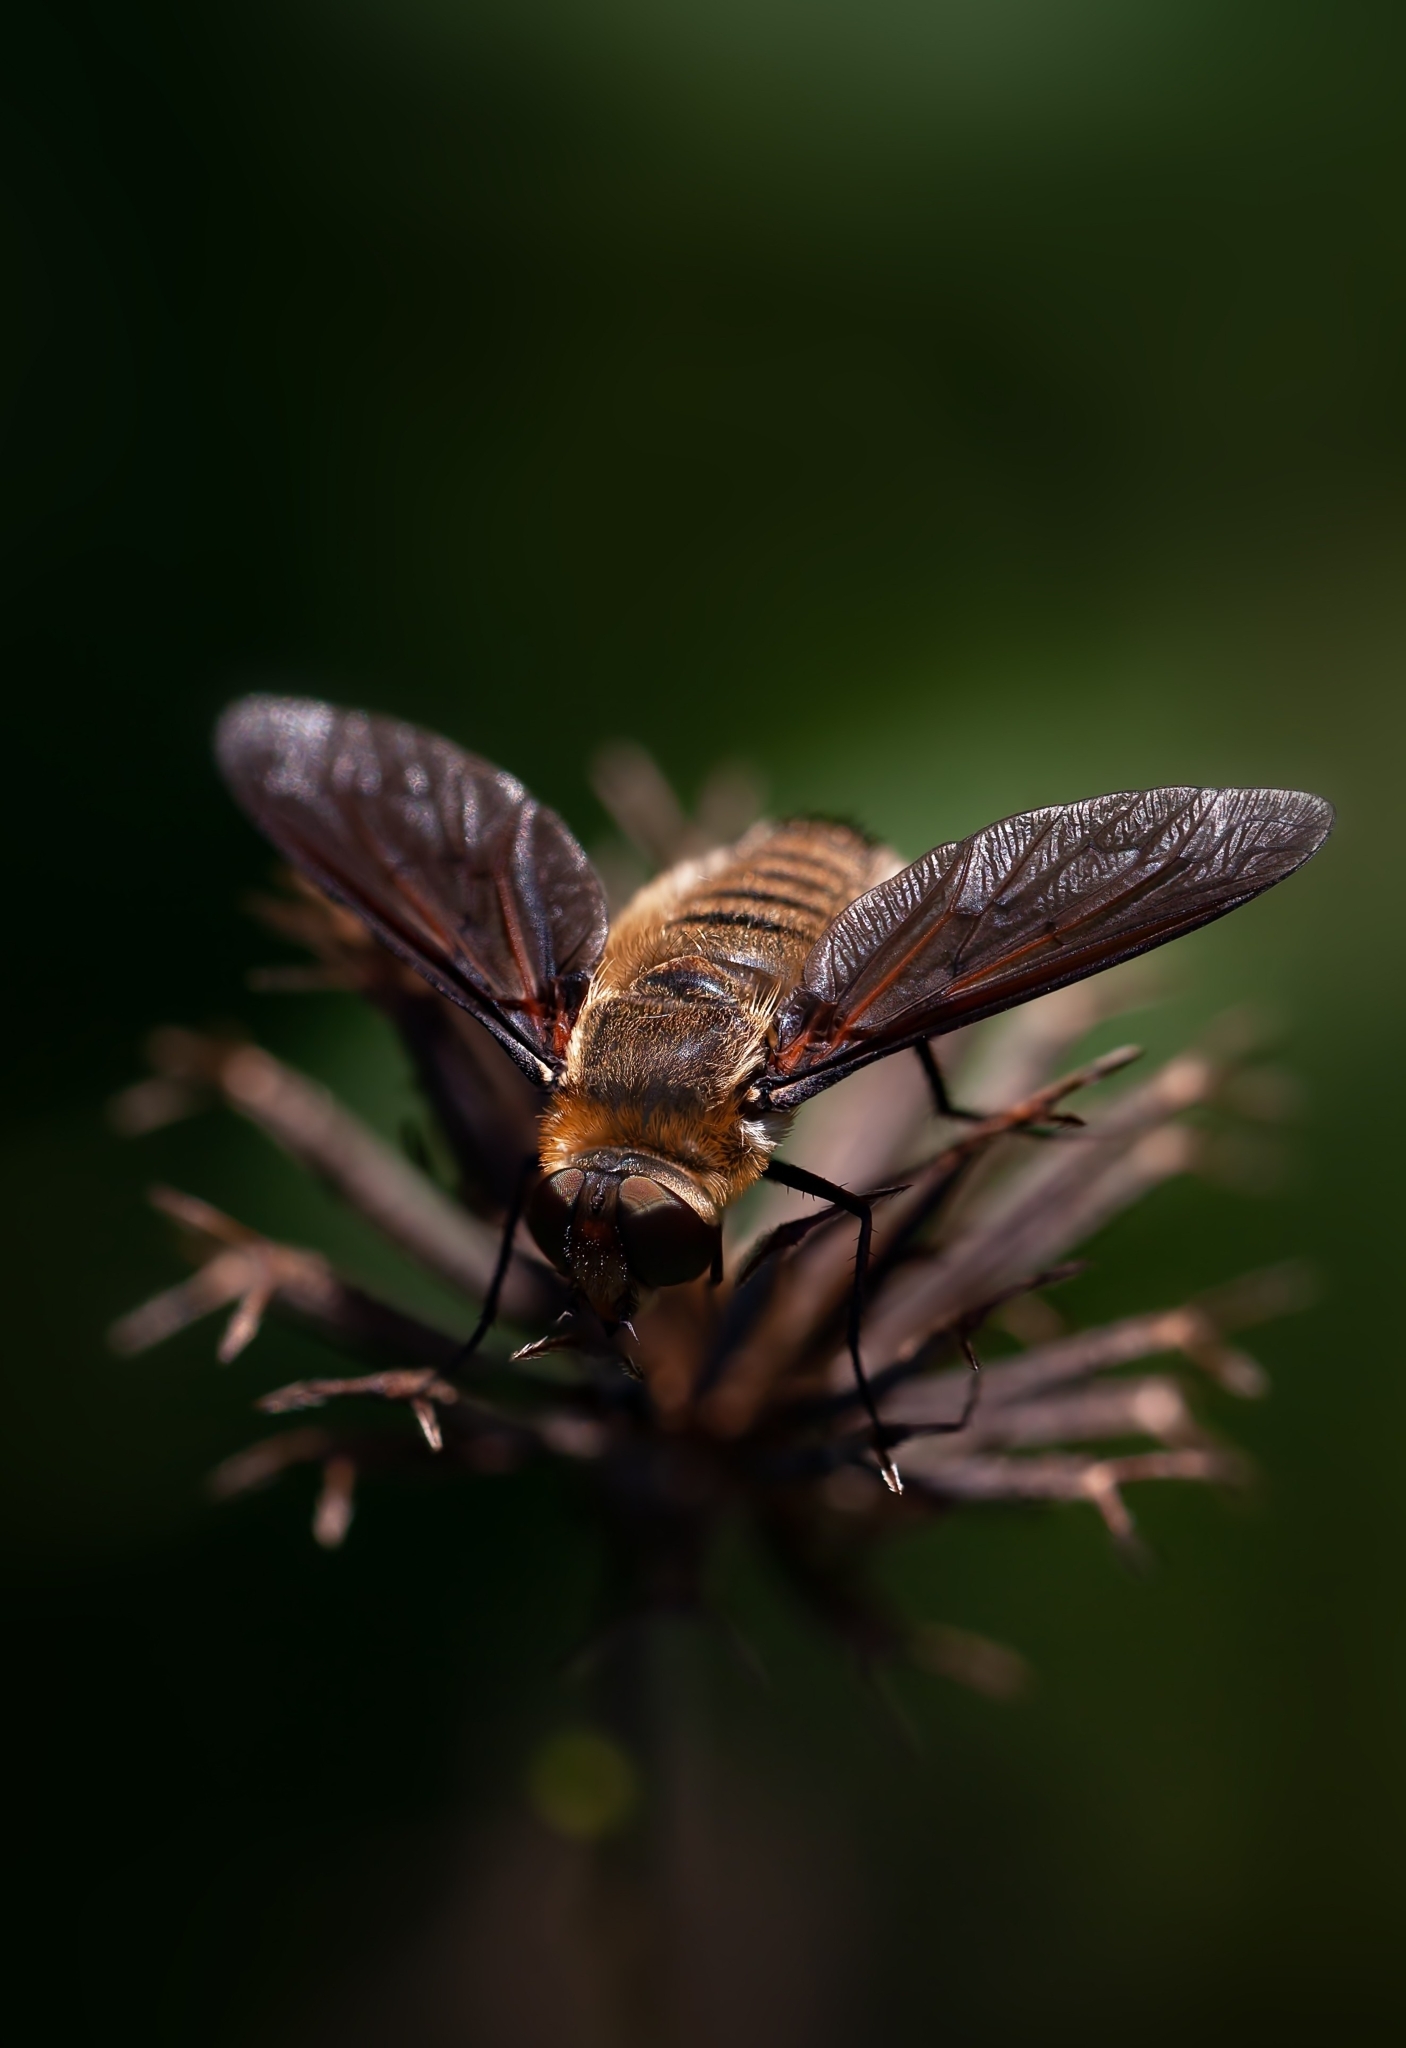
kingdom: Animalia
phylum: Arthropoda
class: Insecta
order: Diptera
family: Bombyliidae
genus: Poecilanthrax
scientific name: Poecilanthrax lucifer
